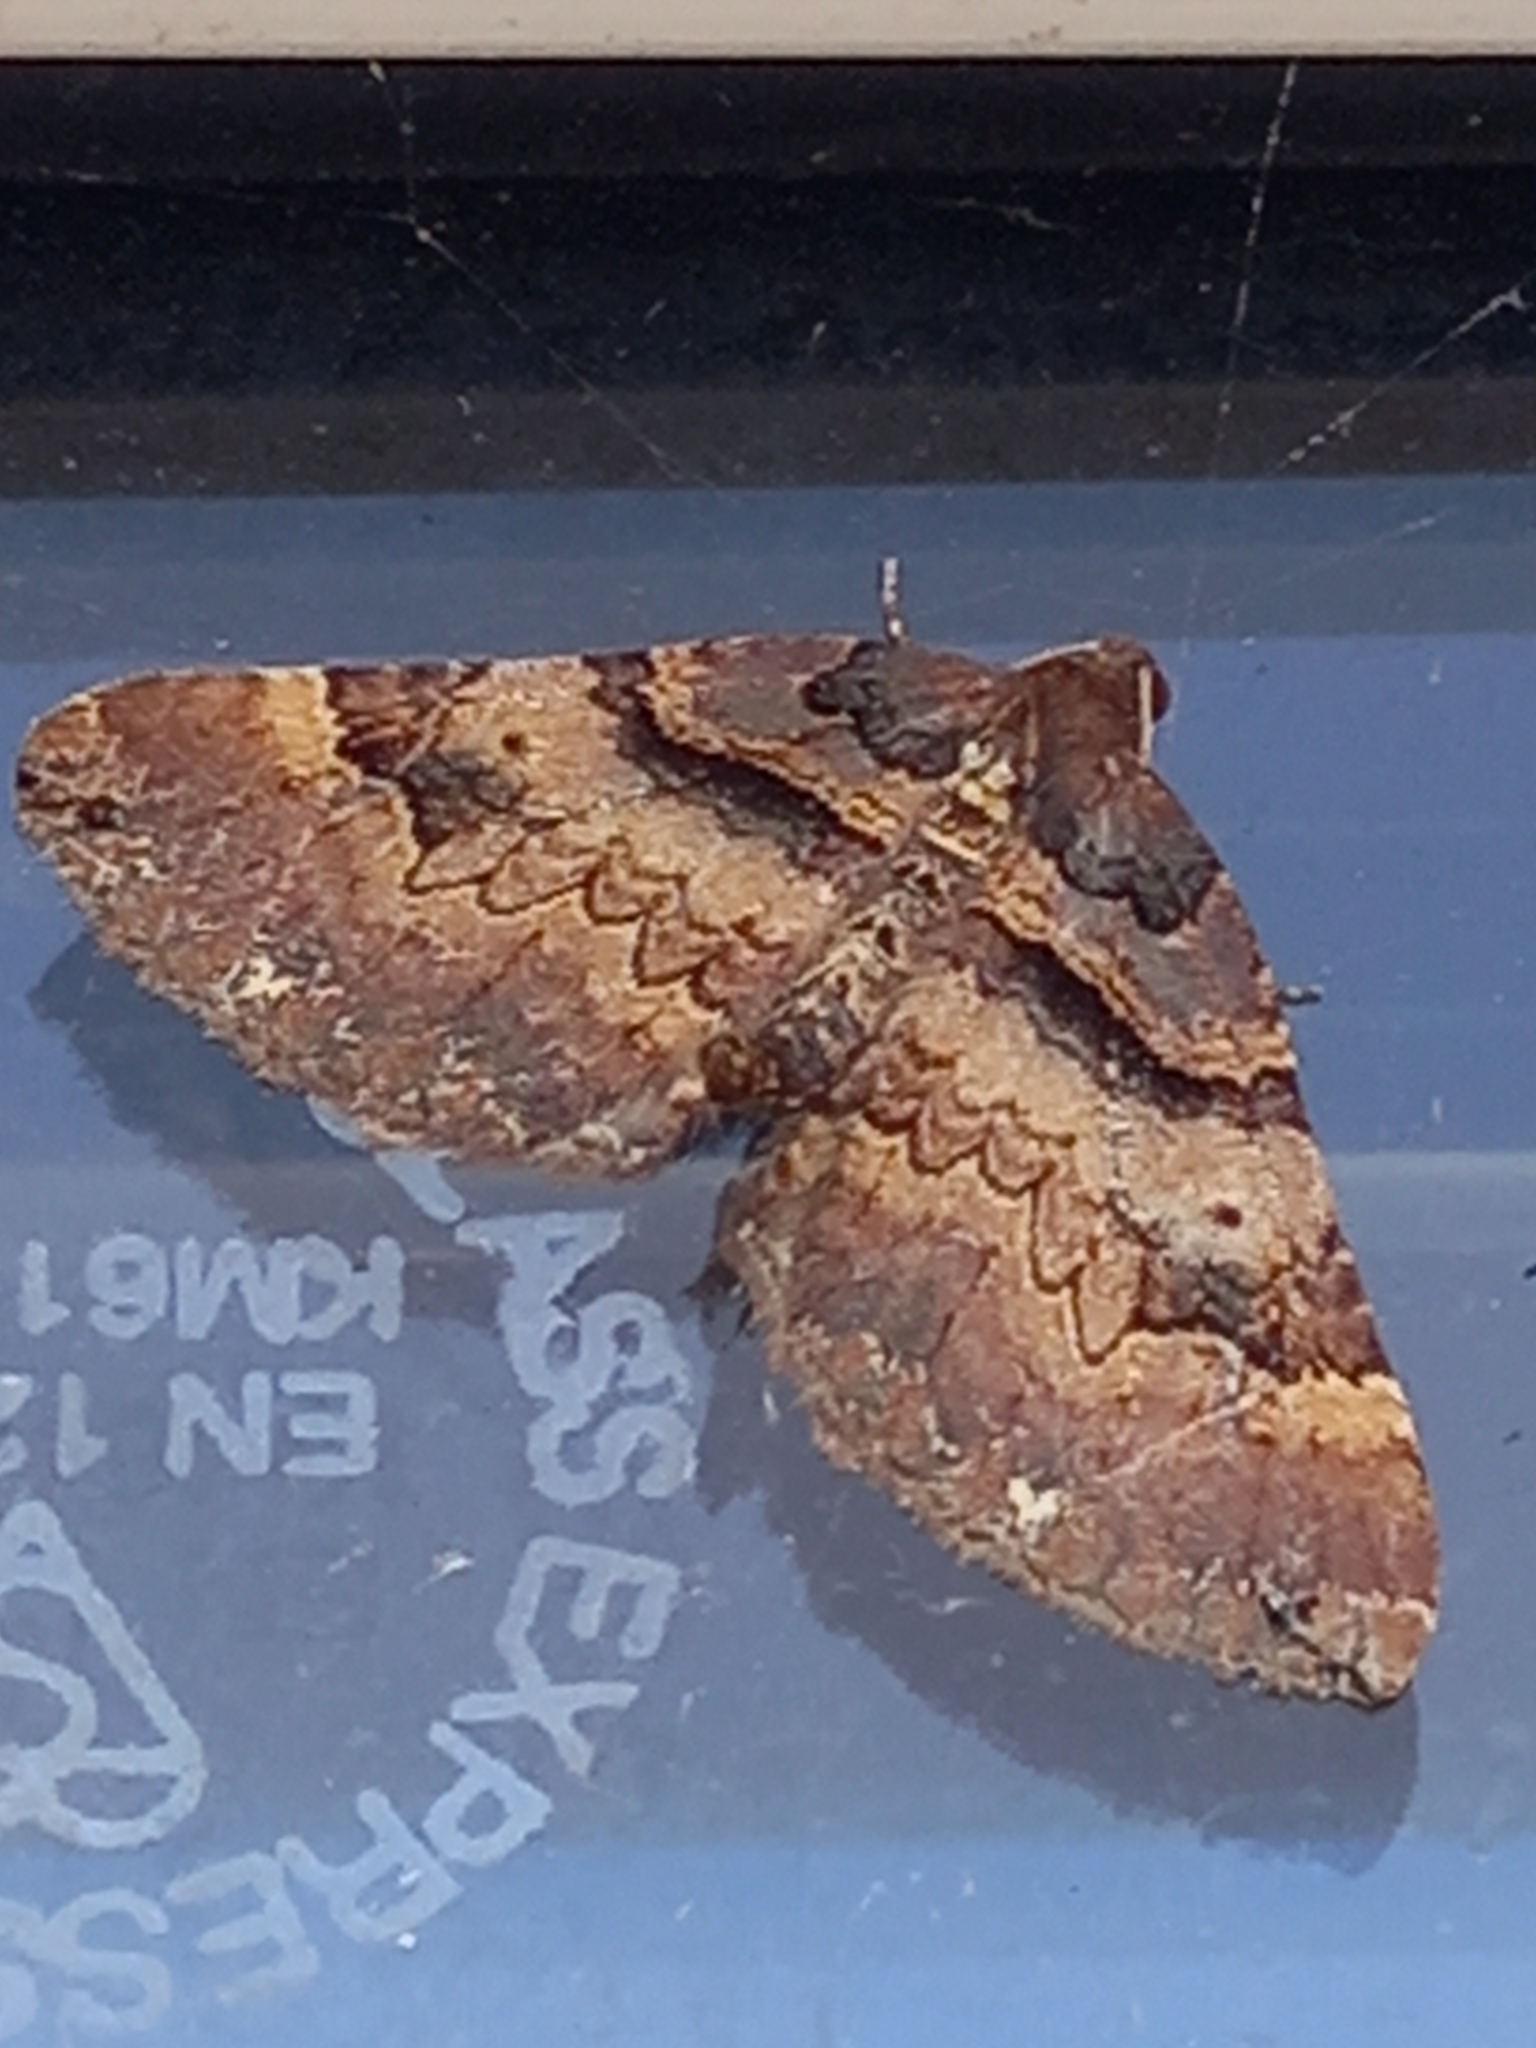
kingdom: Animalia
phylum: Arthropoda
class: Insecta
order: Lepidoptera
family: Geometridae
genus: Anticlea
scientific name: Anticlea badiata
